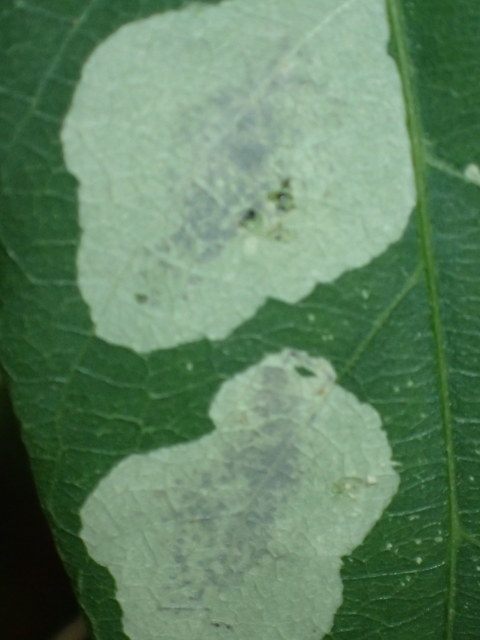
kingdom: Animalia
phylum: Arthropoda
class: Insecta
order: Lepidoptera
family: Gracillariidae
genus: Anarsioses
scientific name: Anarsioses aberrans
